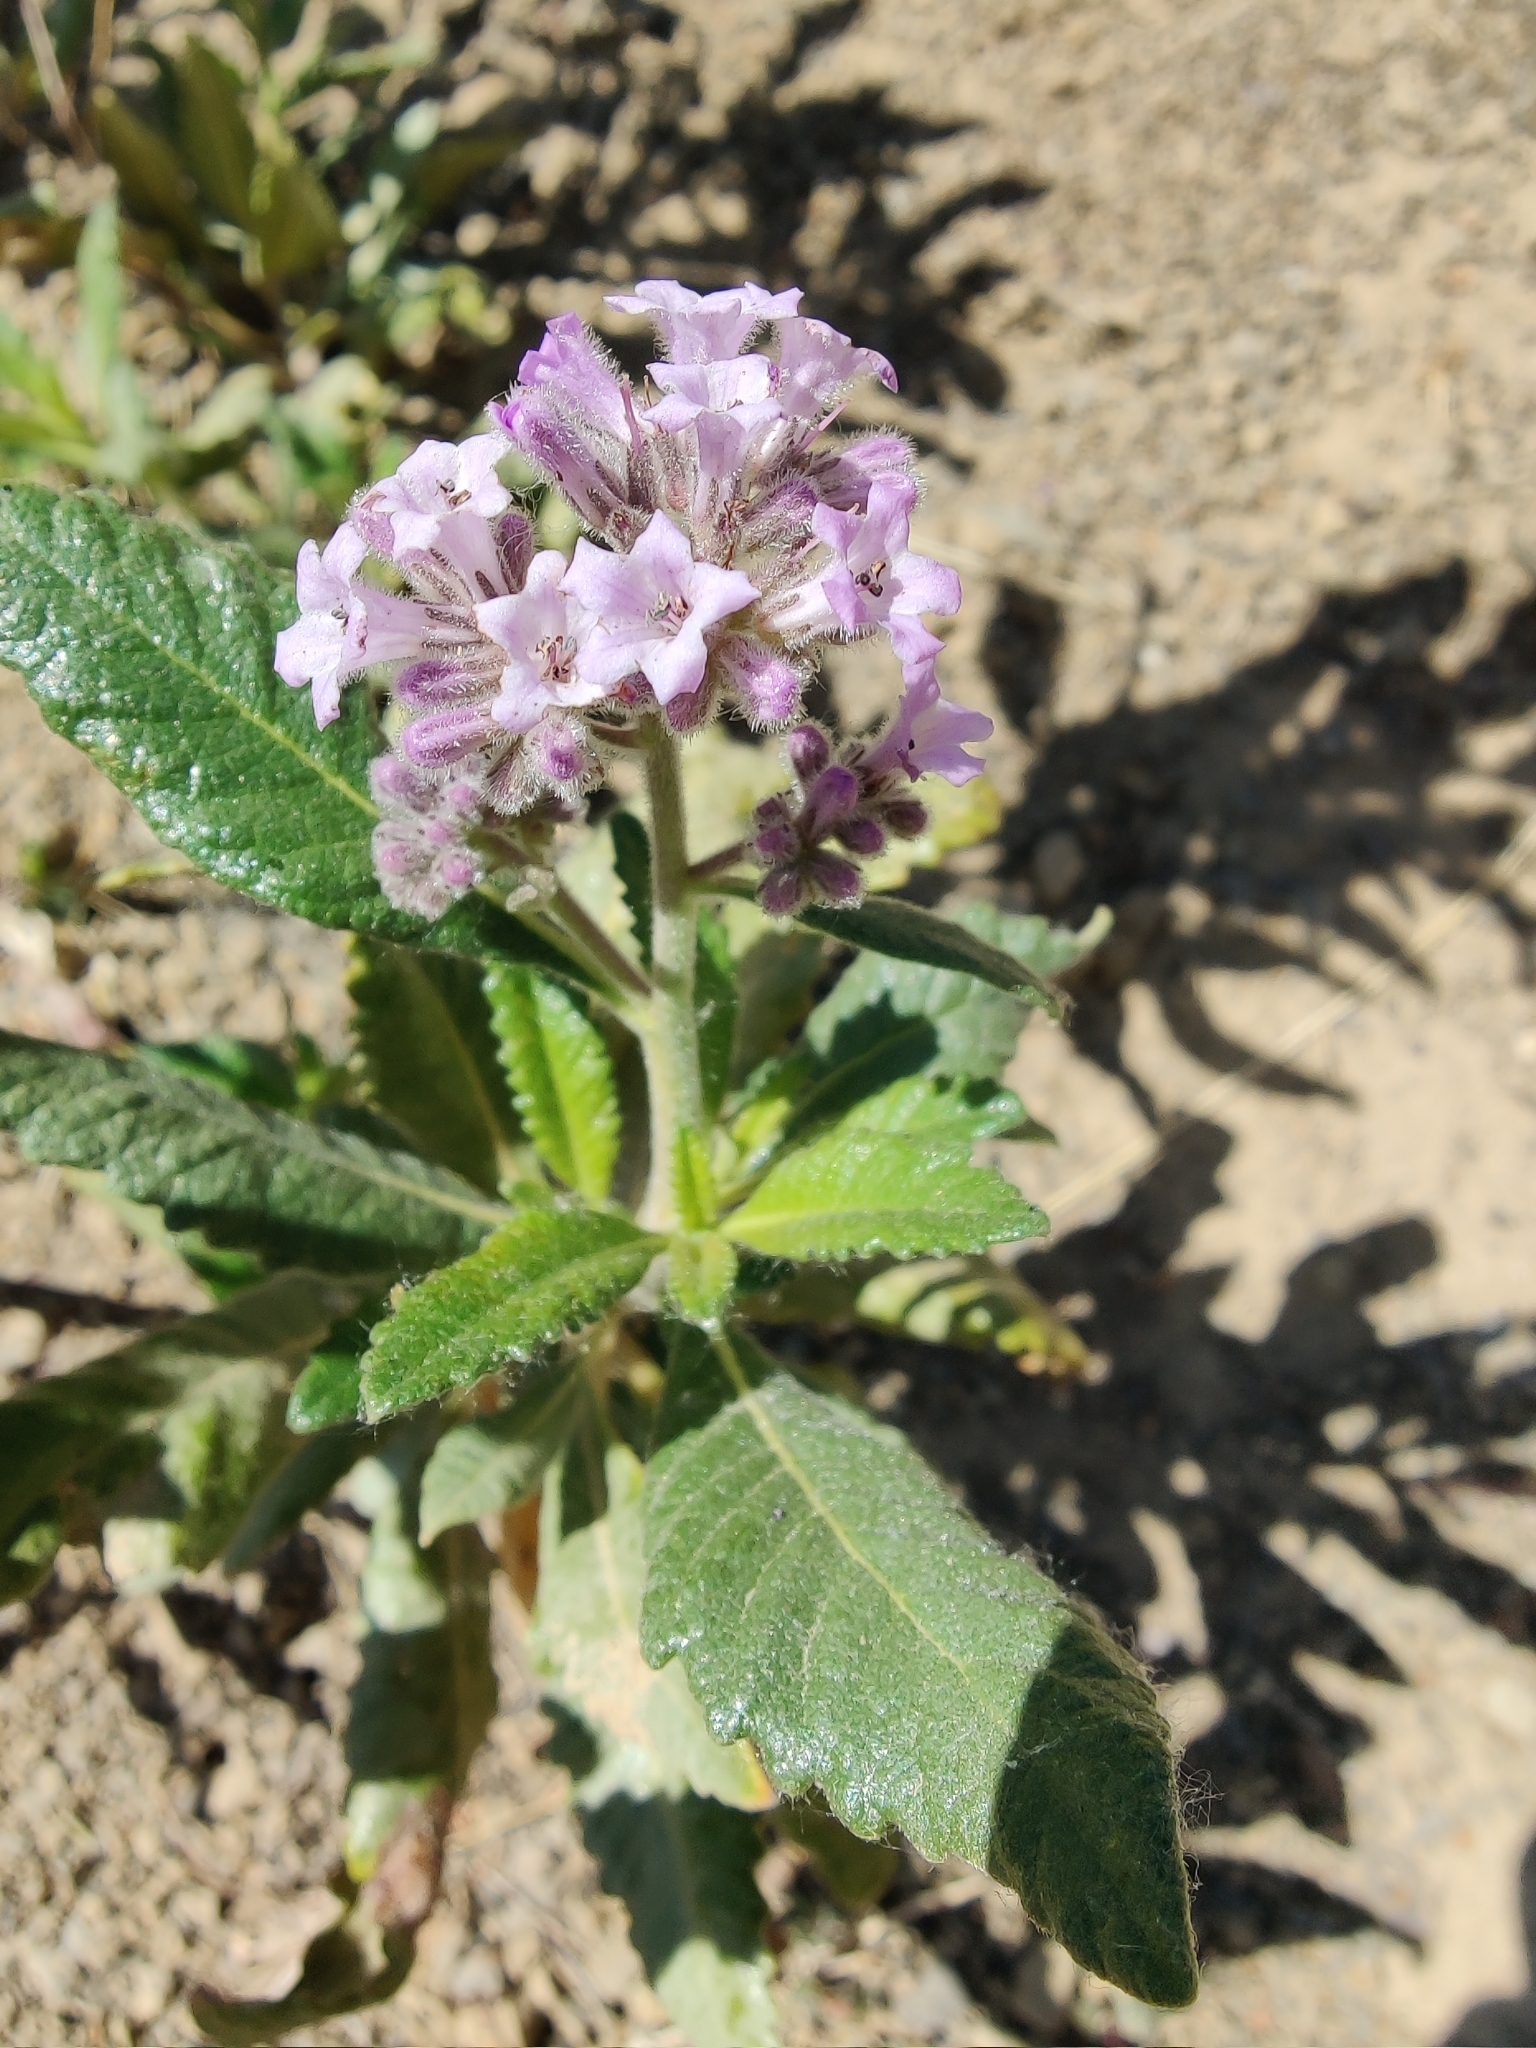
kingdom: Plantae
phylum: Tracheophyta
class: Magnoliopsida
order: Boraginales
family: Namaceae
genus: Eriodictyon
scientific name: Eriodictyon crassifolium
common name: Thick-leaf yerba-santa
